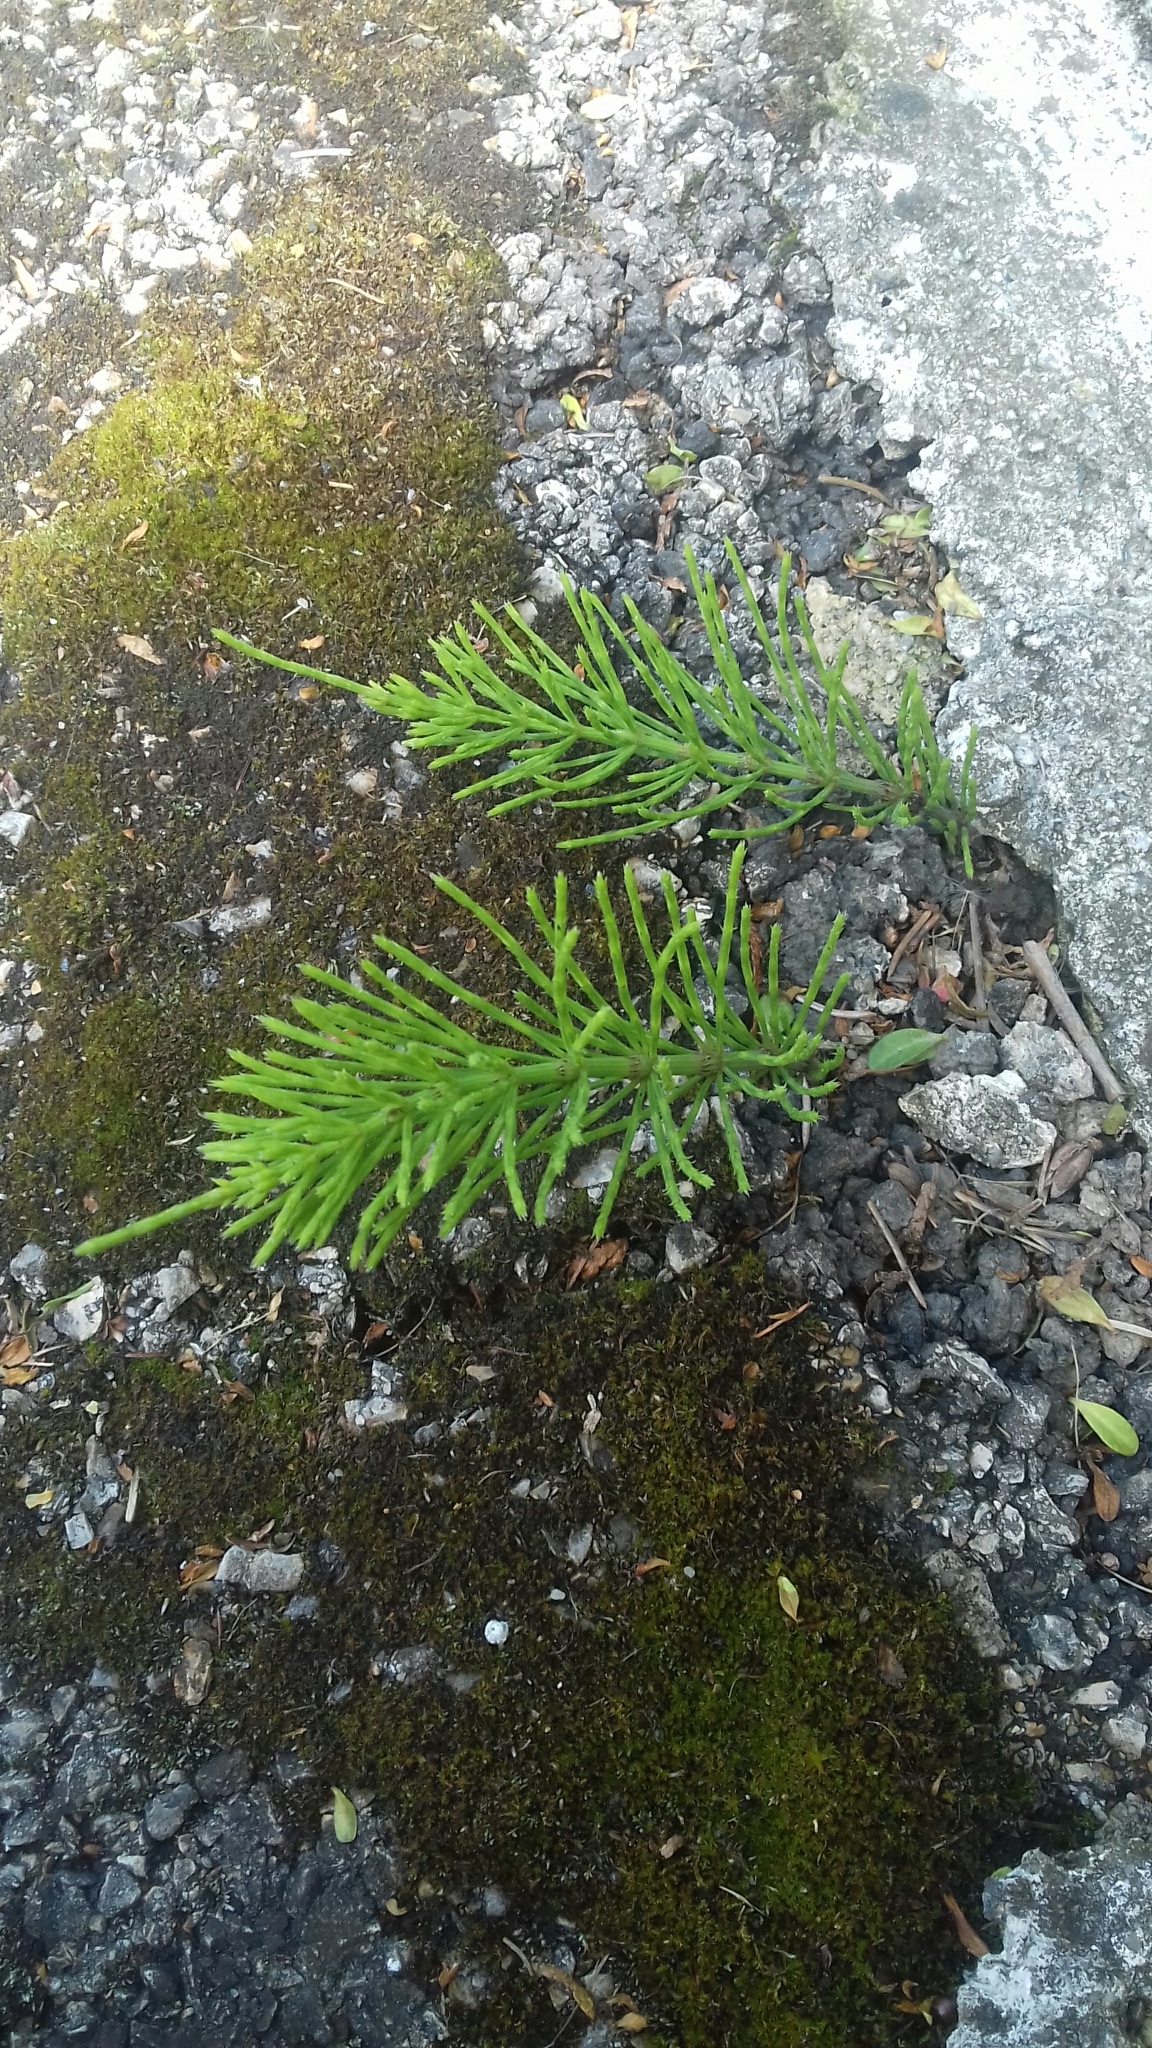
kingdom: Plantae
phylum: Tracheophyta
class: Polypodiopsida
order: Equisetales
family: Equisetaceae
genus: Equisetum
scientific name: Equisetum arvense
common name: Field horsetail
